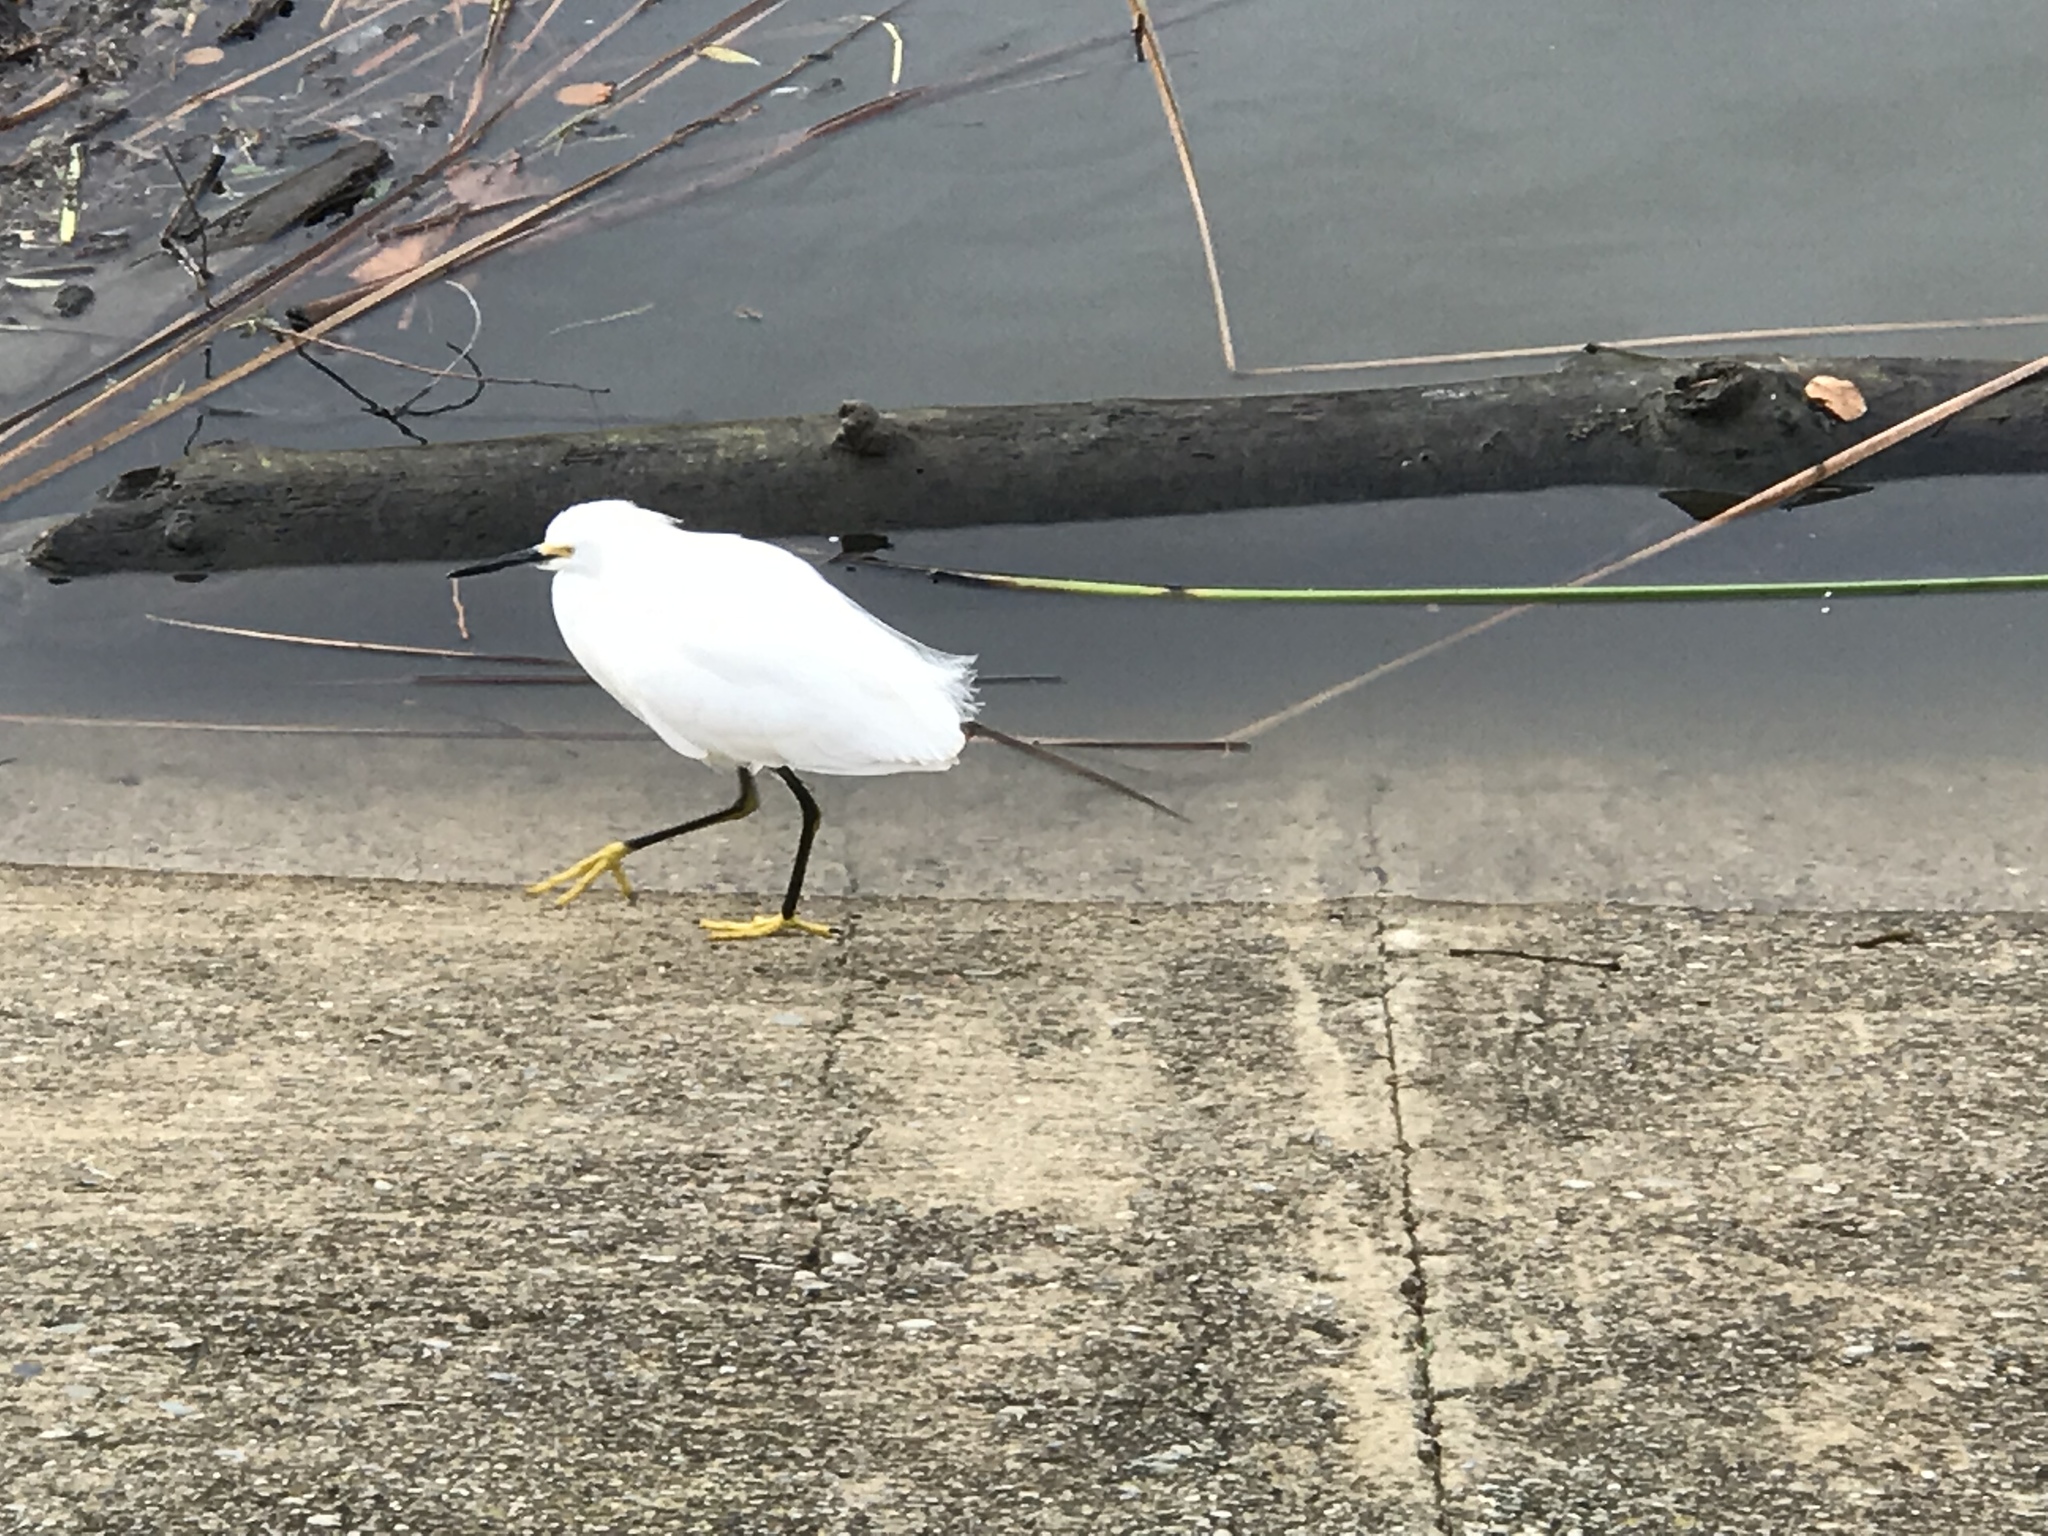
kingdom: Animalia
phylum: Chordata
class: Aves
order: Pelecaniformes
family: Ardeidae
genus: Egretta
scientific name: Egretta thula
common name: Snowy egret
